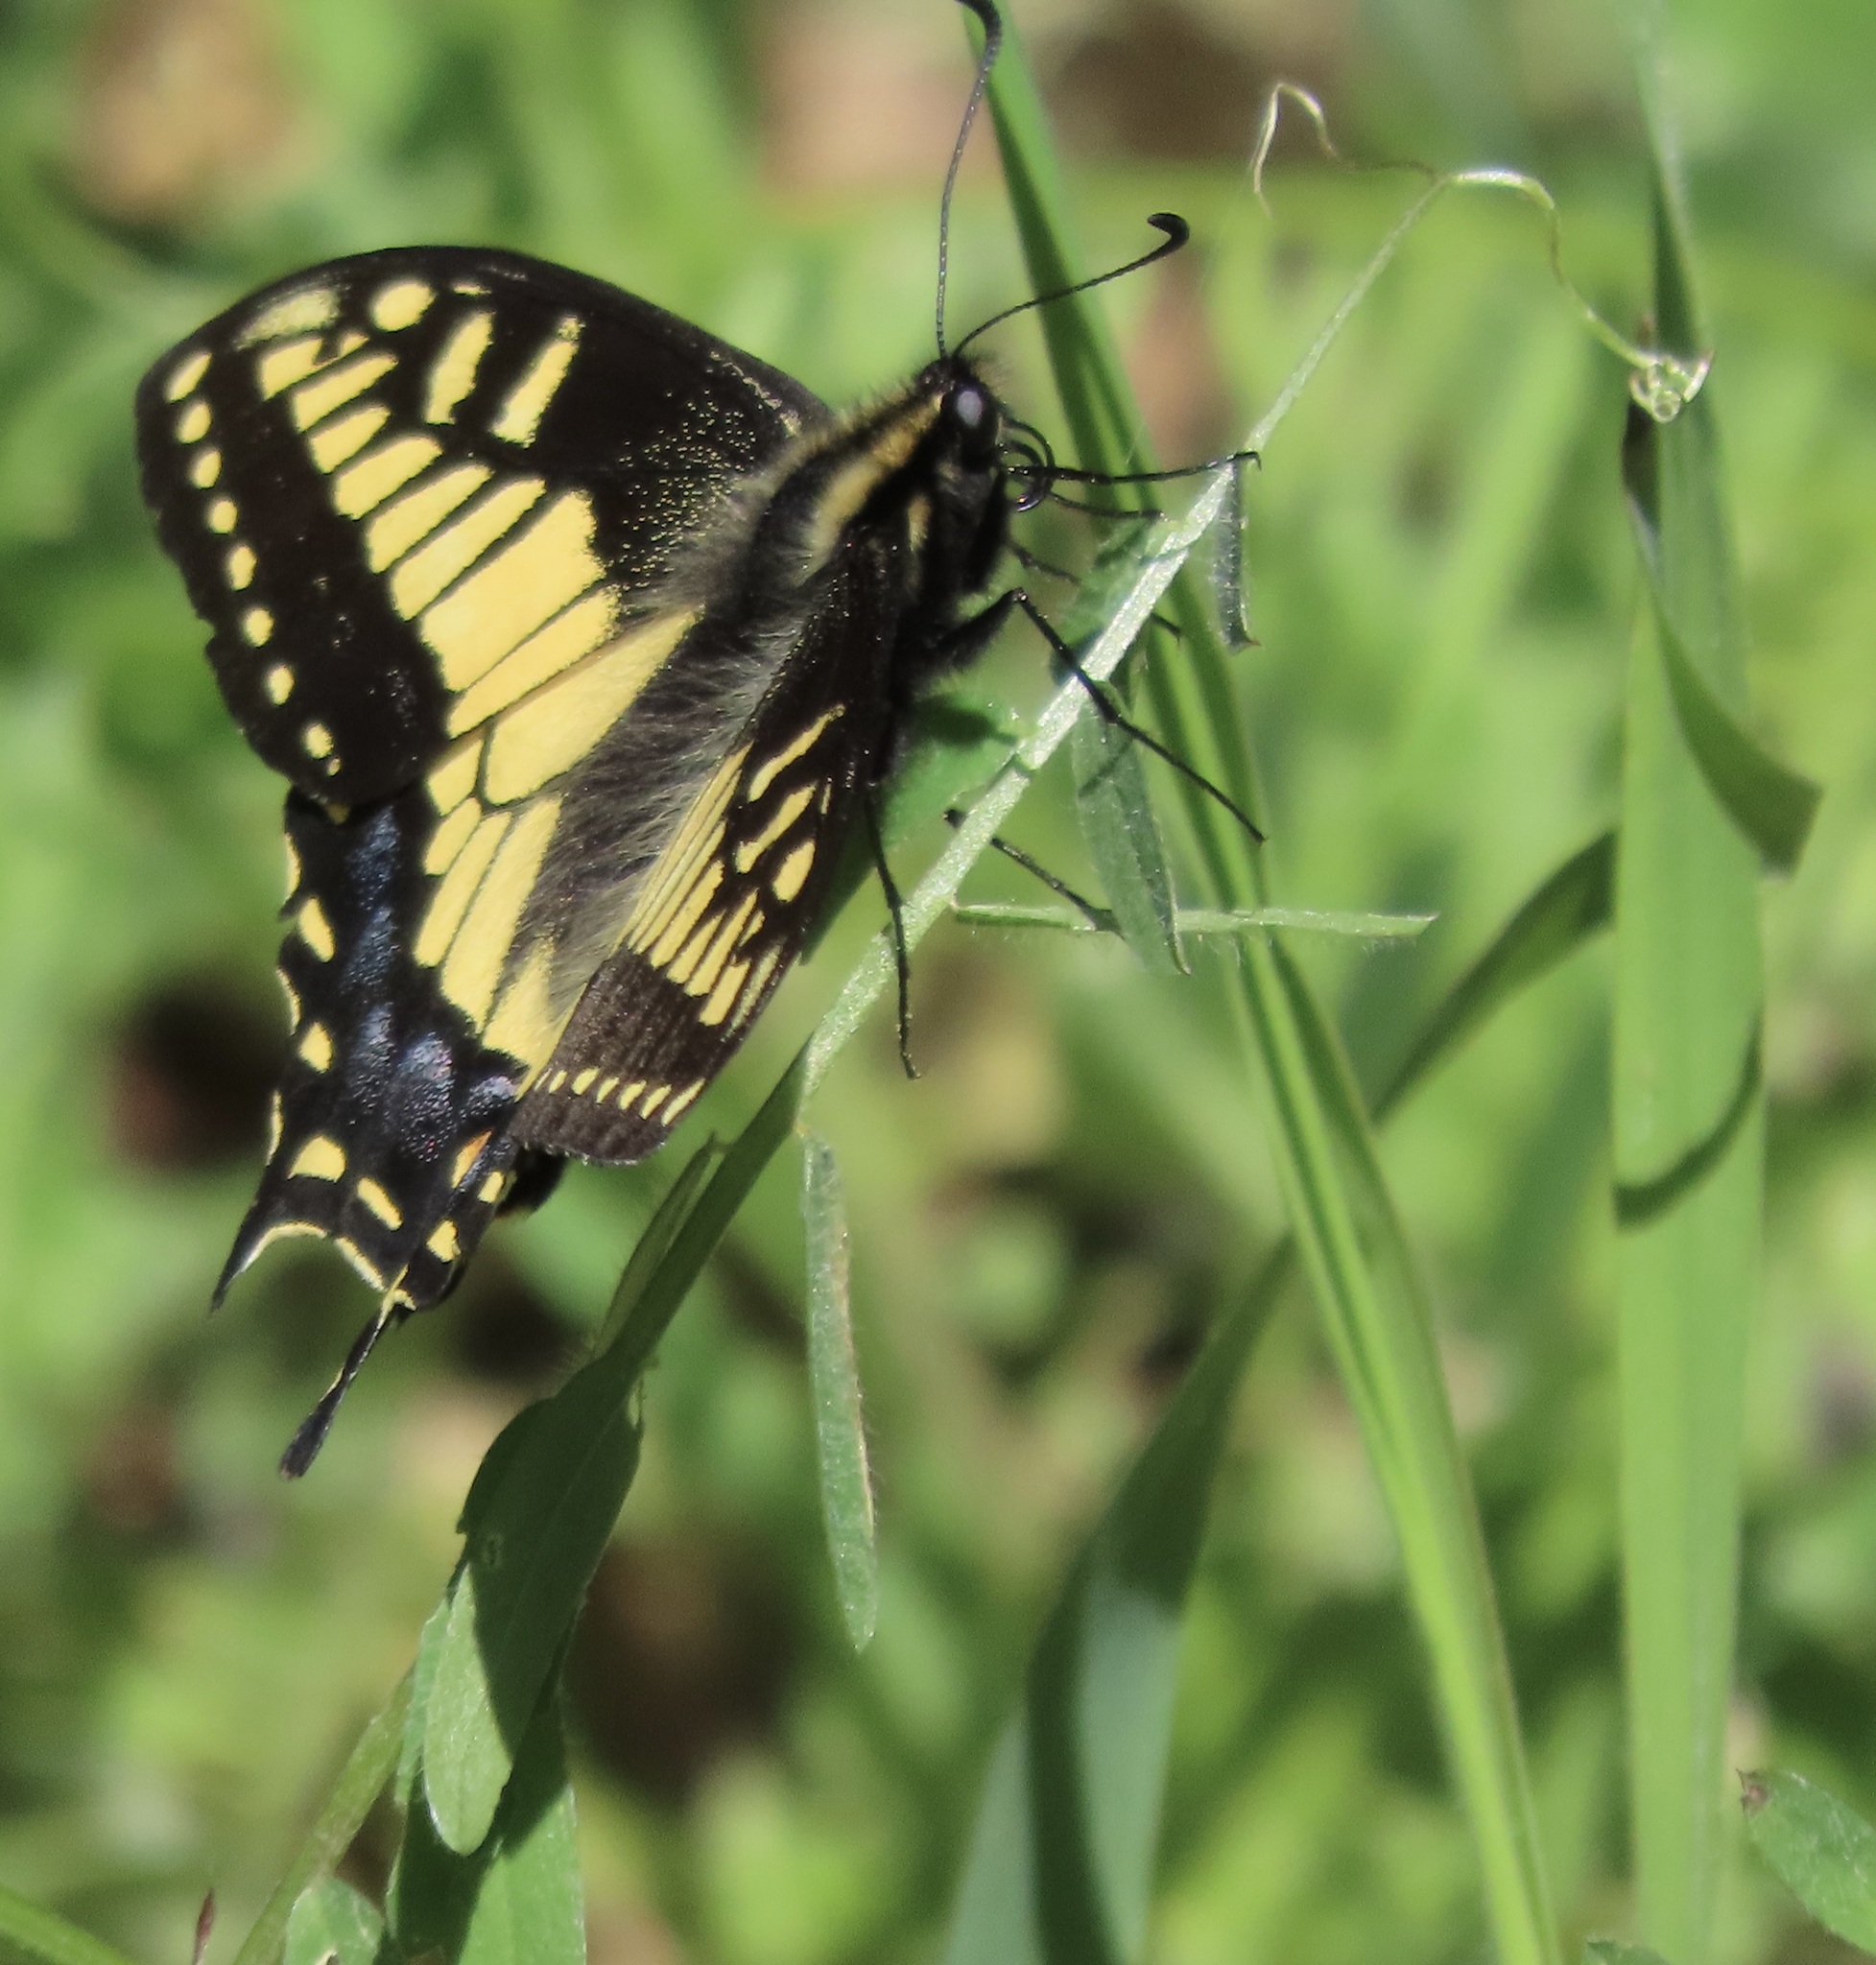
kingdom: Animalia
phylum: Arthropoda
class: Insecta
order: Lepidoptera
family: Papilionidae
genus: Papilio
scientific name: Papilio zelicaon
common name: Anise swallowtail
